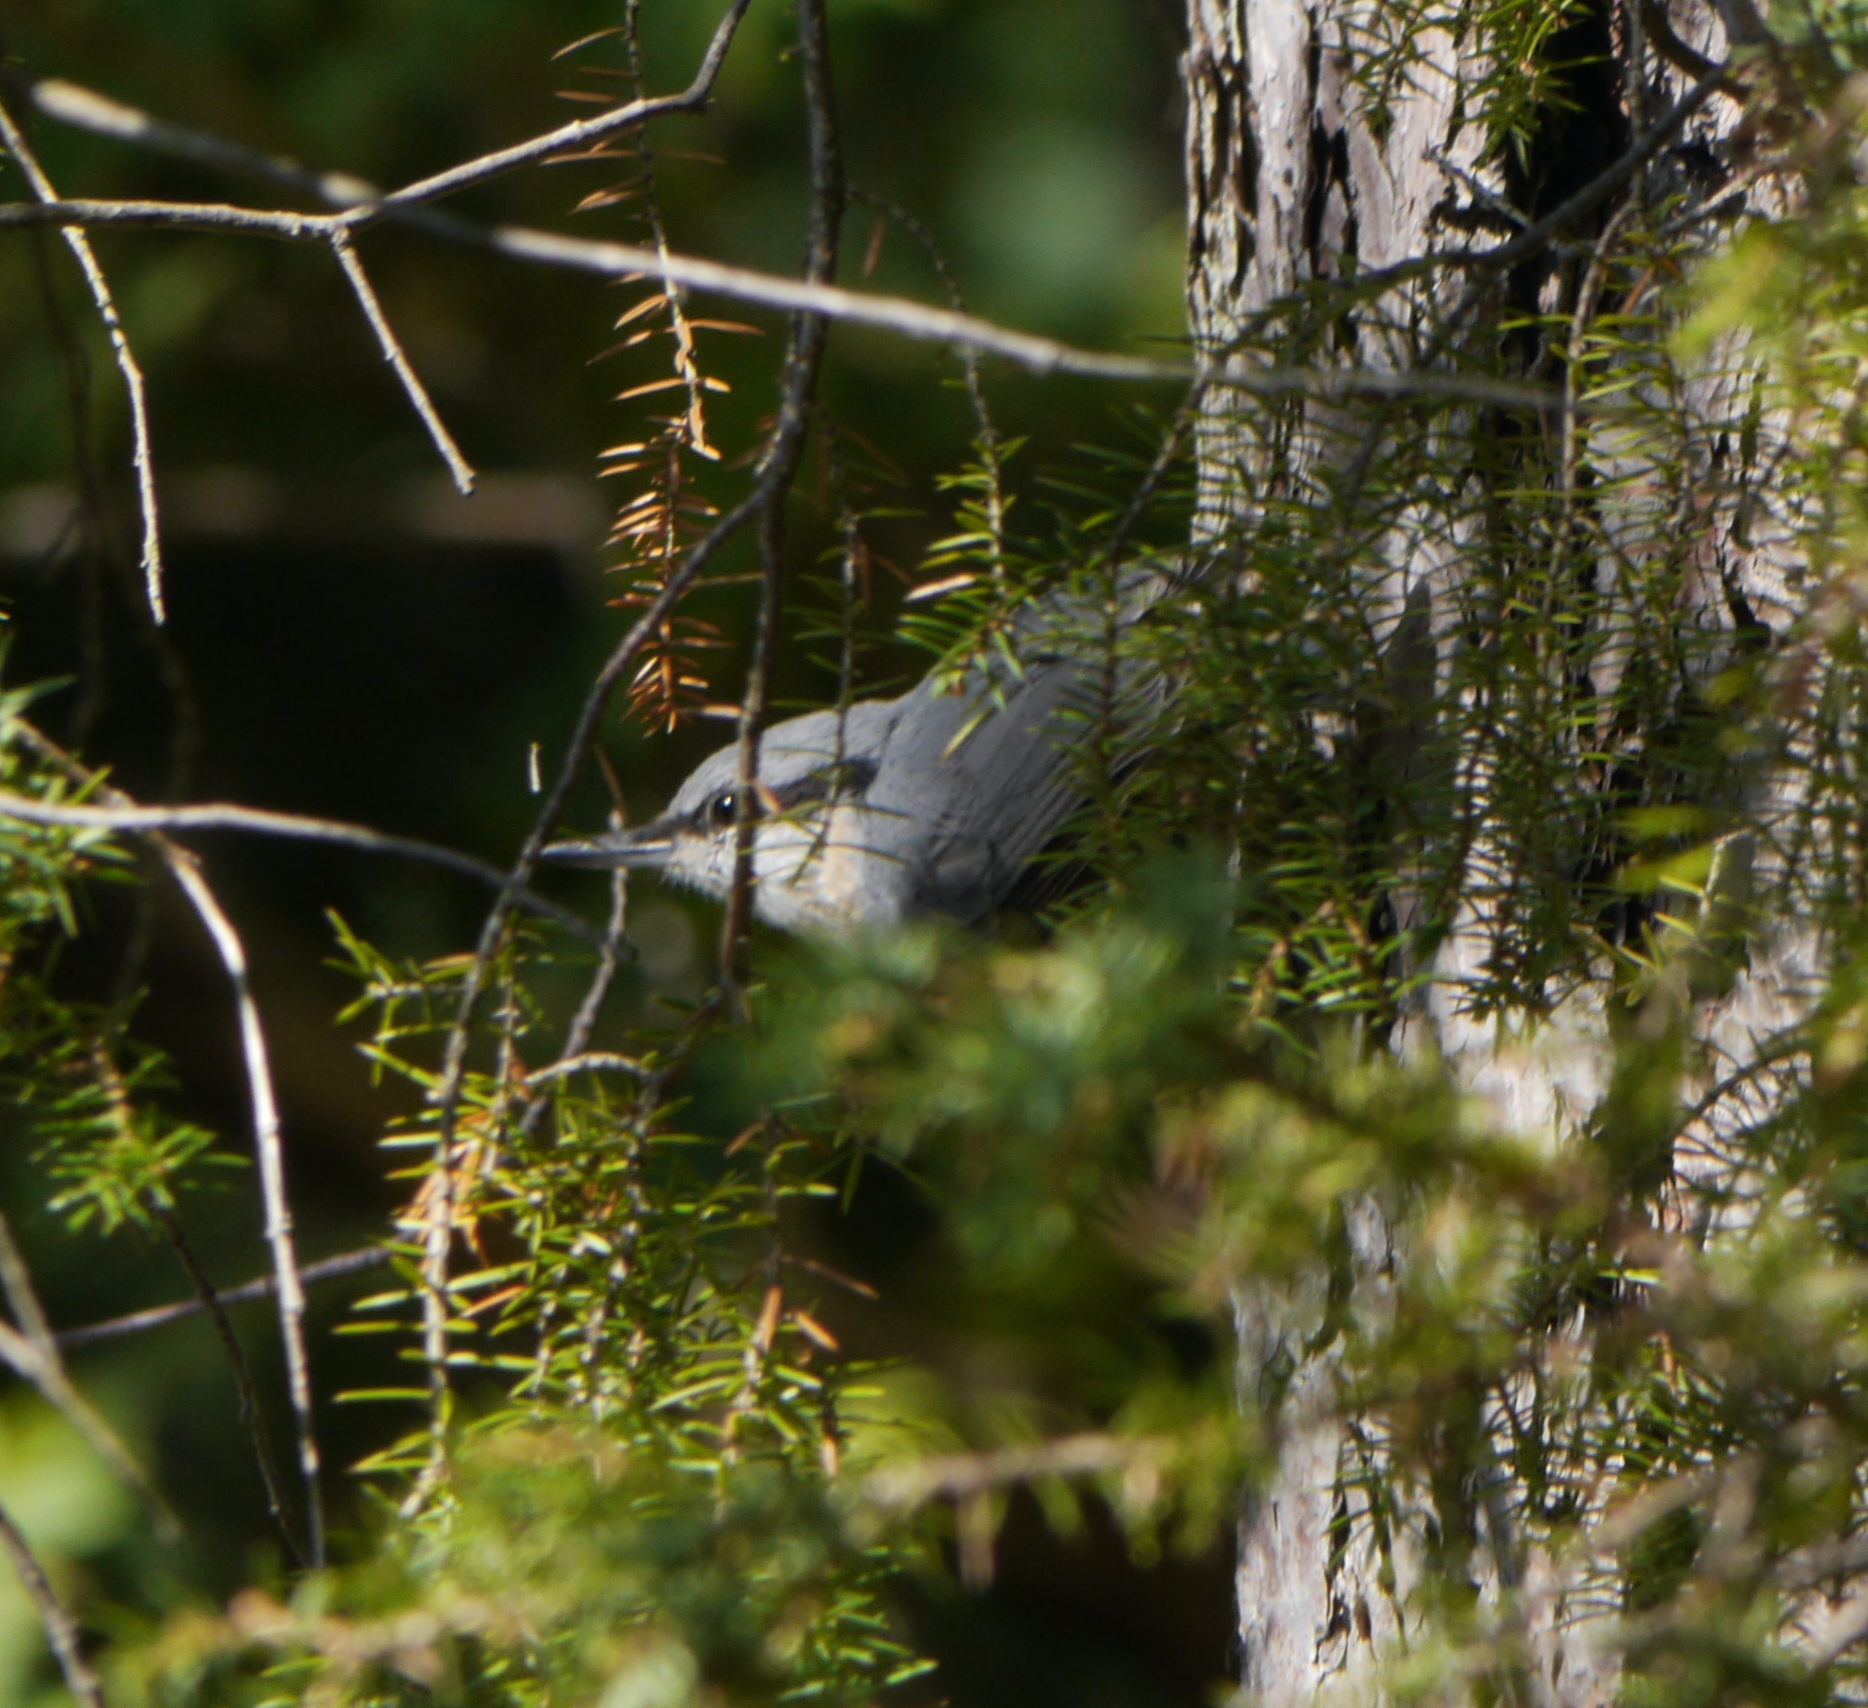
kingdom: Animalia
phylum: Chordata
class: Aves
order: Passeriformes
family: Sittidae
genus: Sitta
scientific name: Sitta europaea
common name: Eurasian nuthatch
